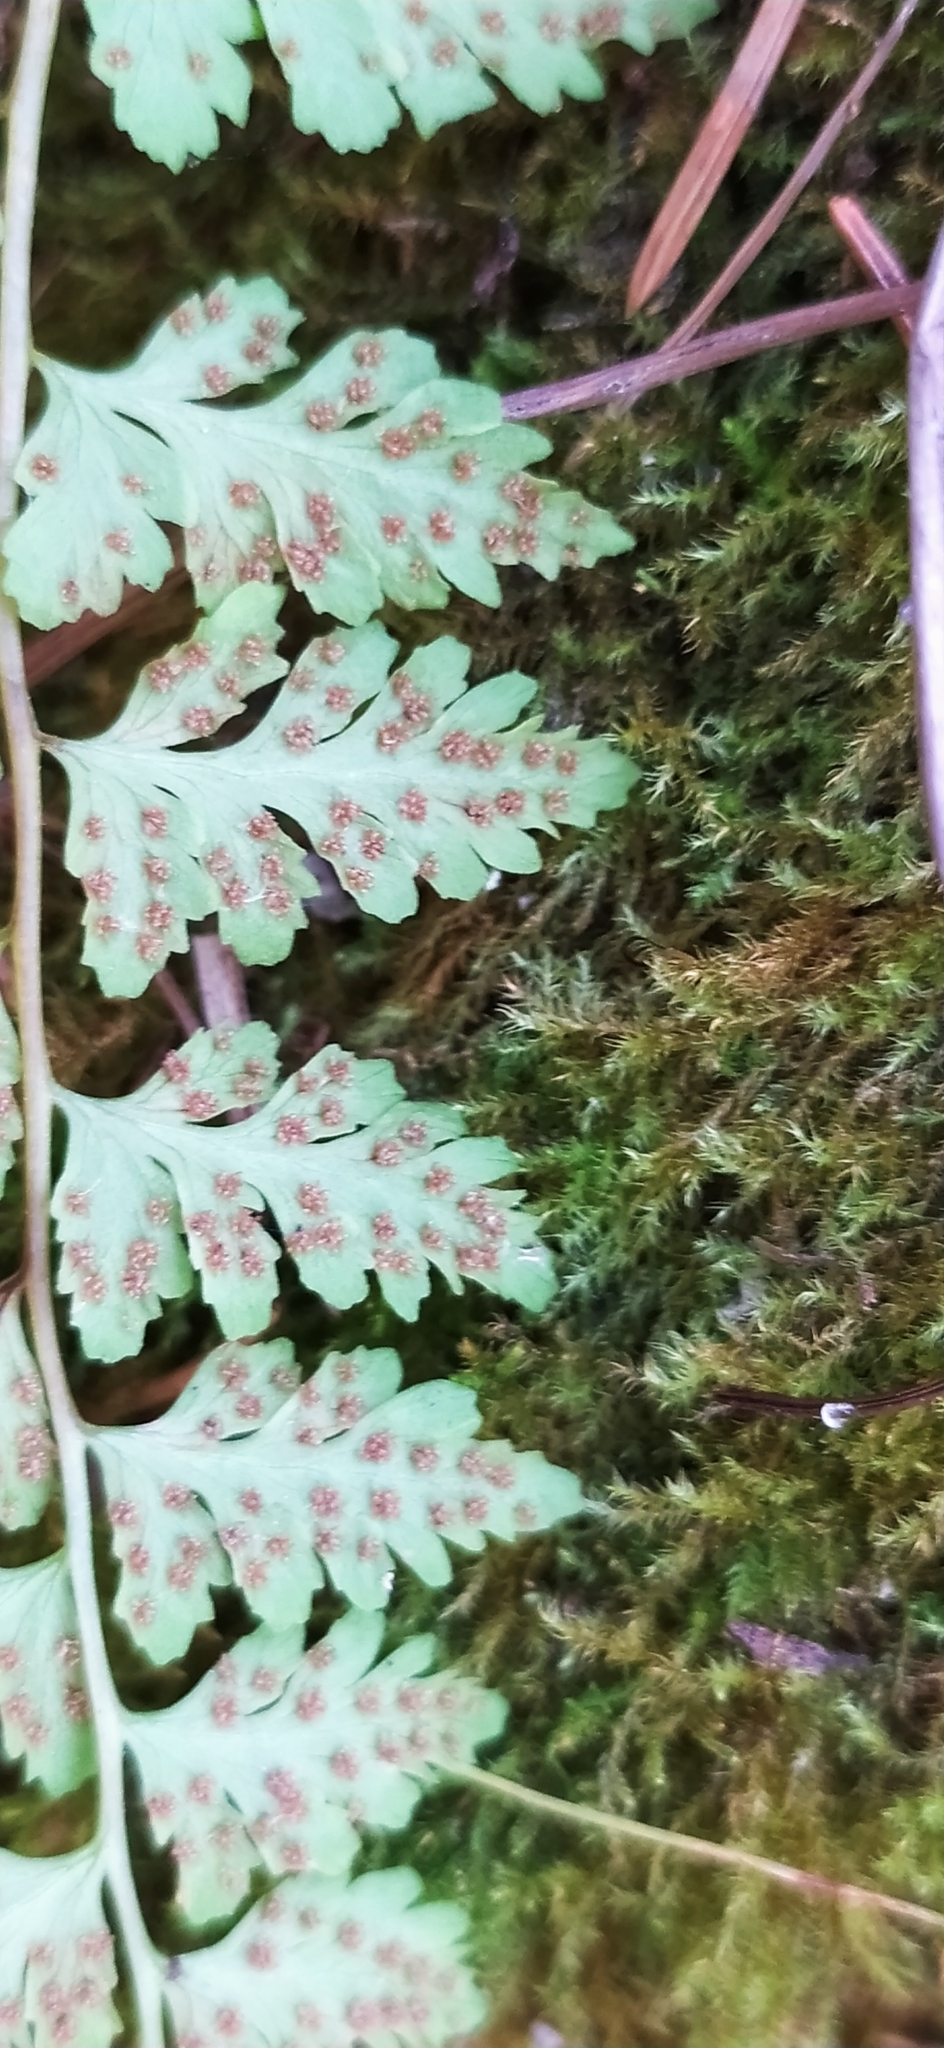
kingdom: Plantae
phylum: Tracheophyta
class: Polypodiopsida
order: Polypodiales
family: Cystopteridaceae
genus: Cystopteris
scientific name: Cystopteris fragilis
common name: Brittle bladder fern
